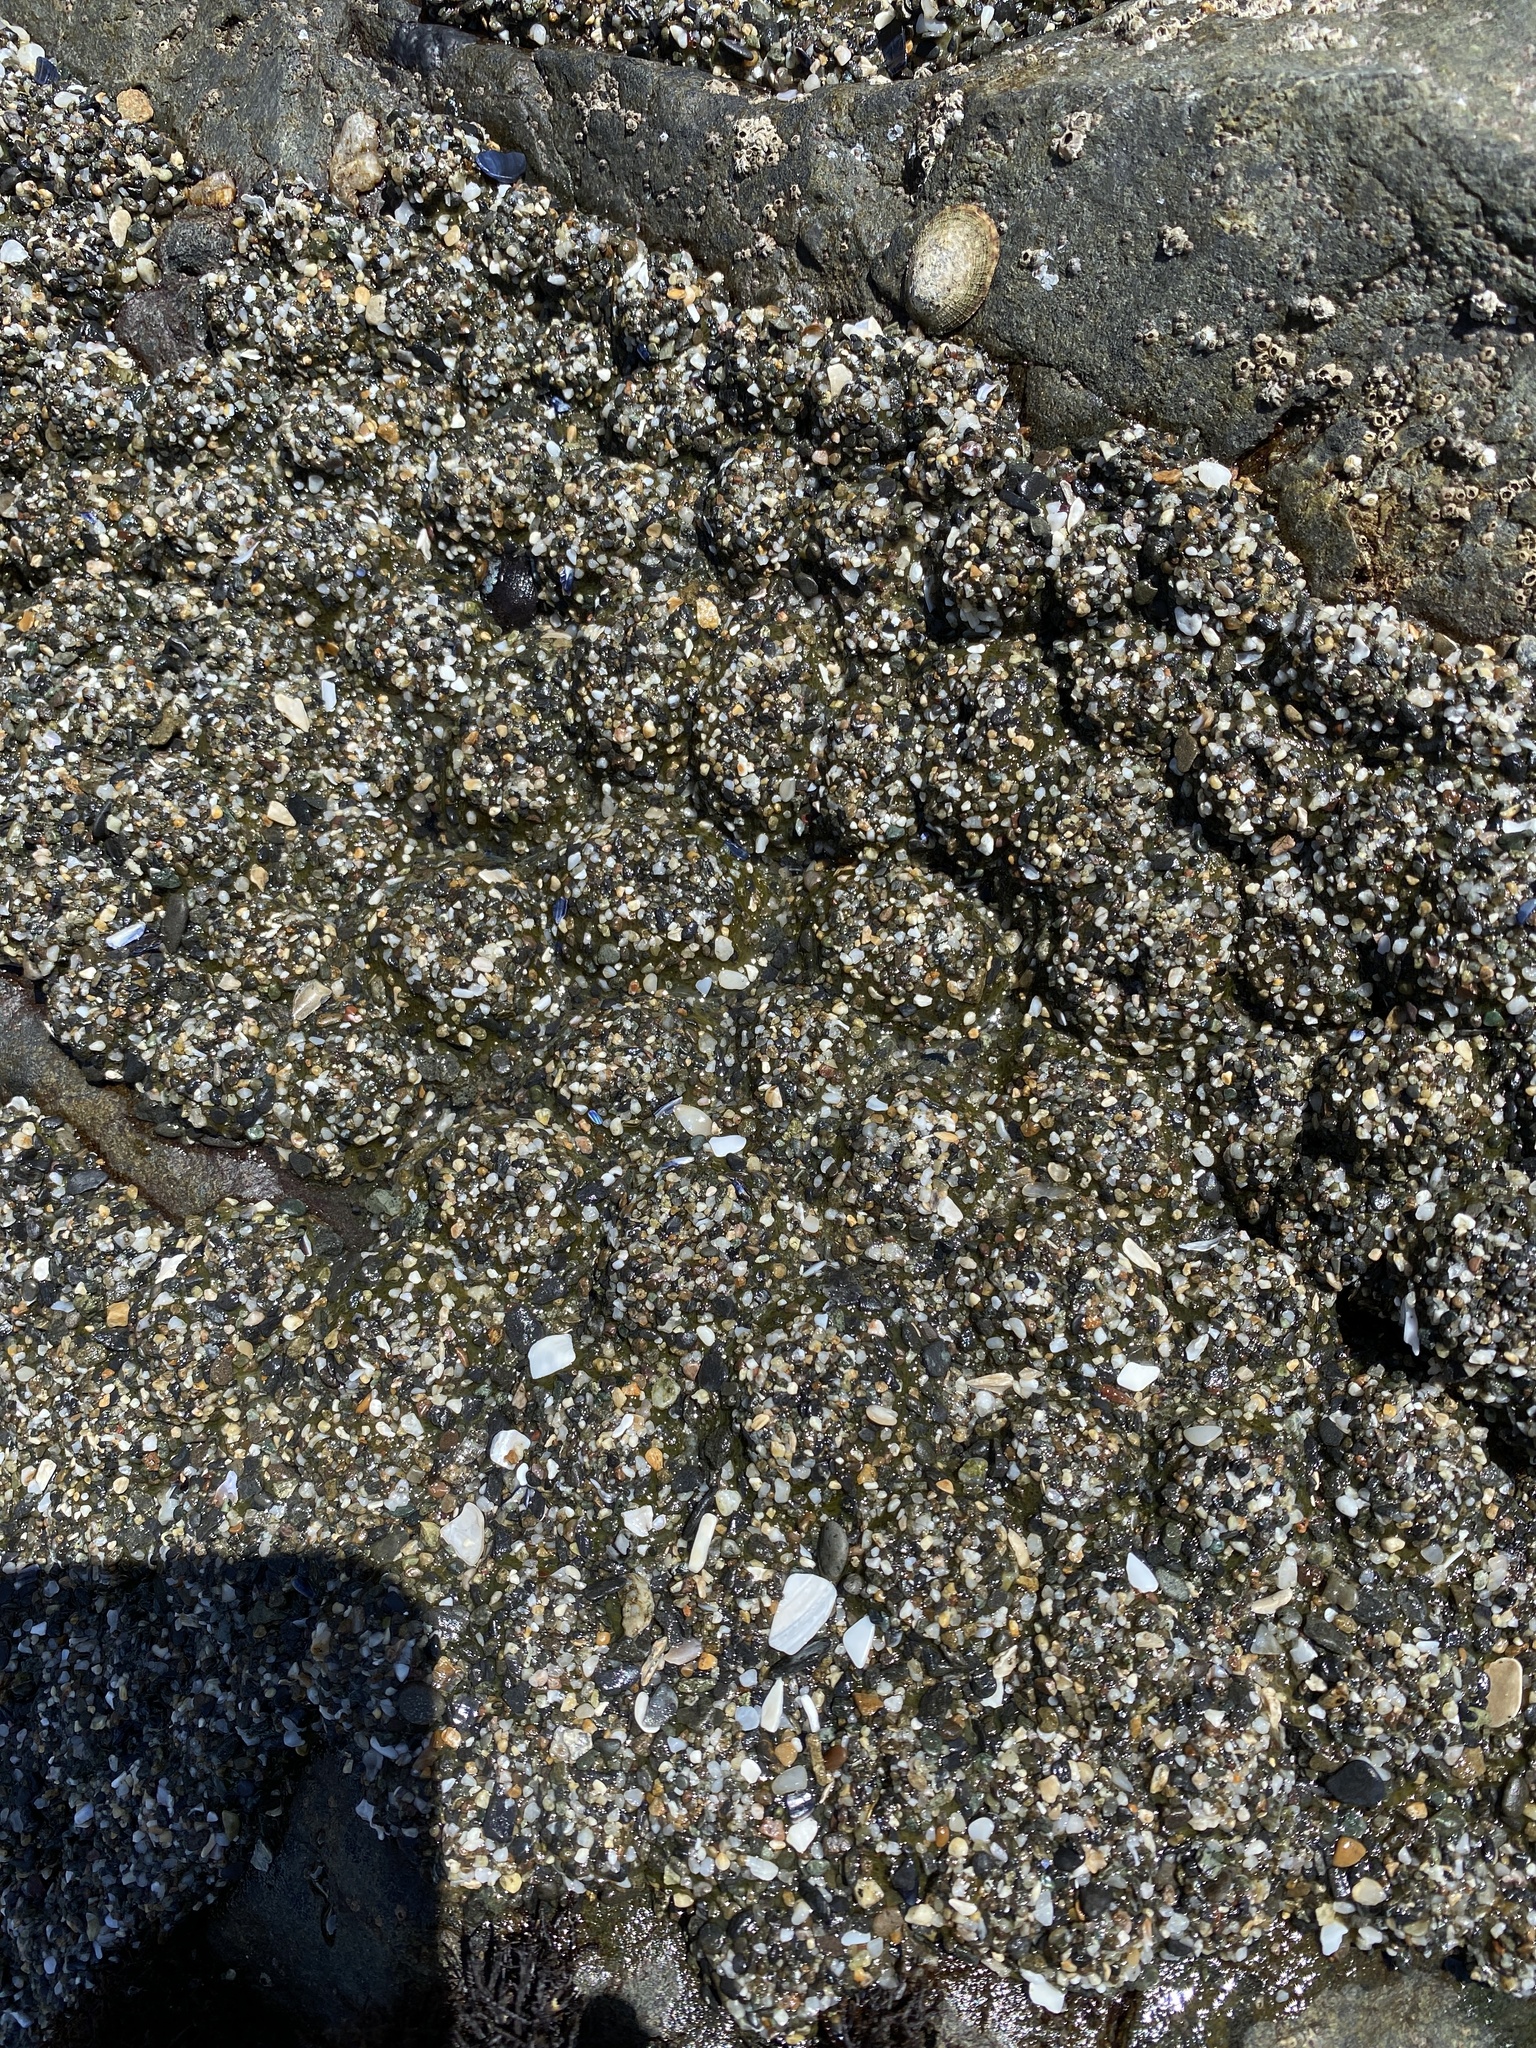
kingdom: Animalia
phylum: Cnidaria
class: Anthozoa
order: Actiniaria
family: Actiniidae
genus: Anthopleura
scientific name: Anthopleura elegantissima
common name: Clonal anemone
